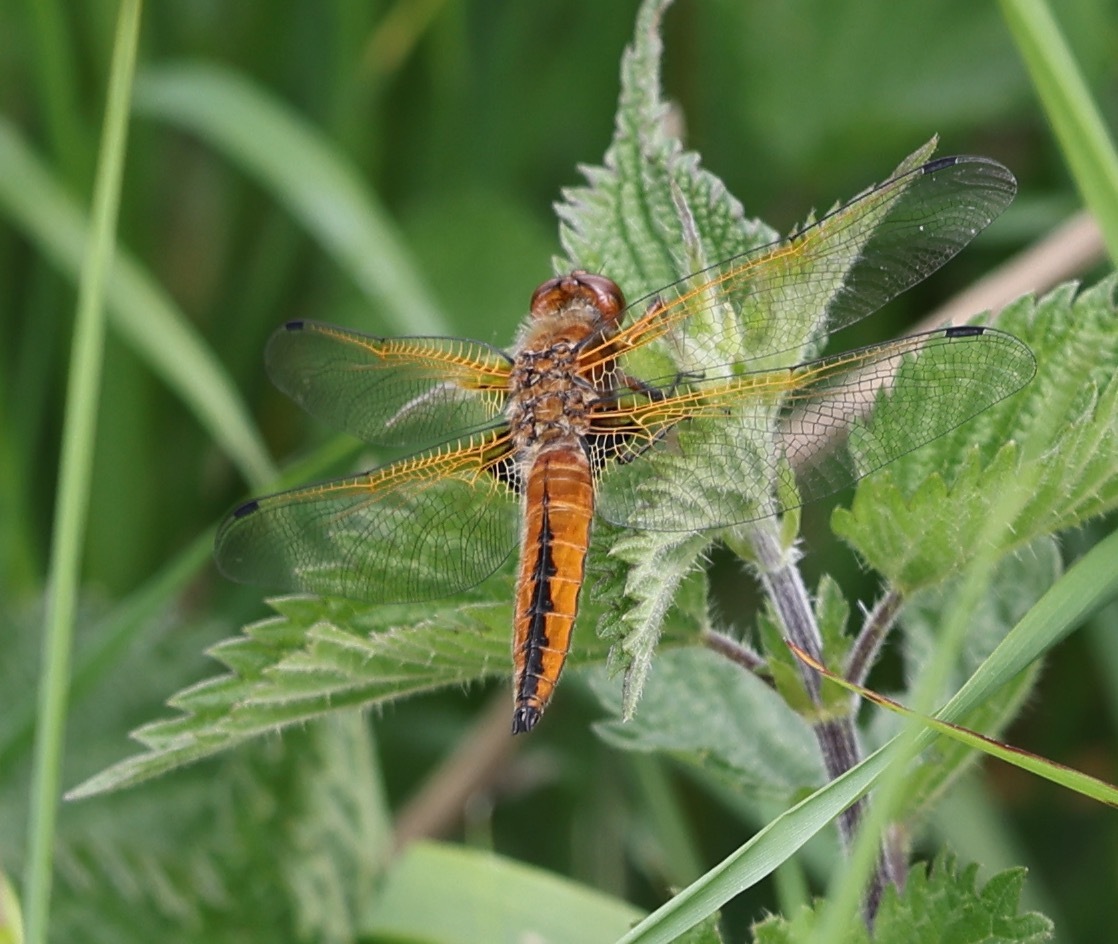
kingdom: Animalia
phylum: Arthropoda
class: Insecta
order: Odonata
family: Libellulidae
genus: Libellula
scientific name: Libellula fulva
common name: Blue chaser
